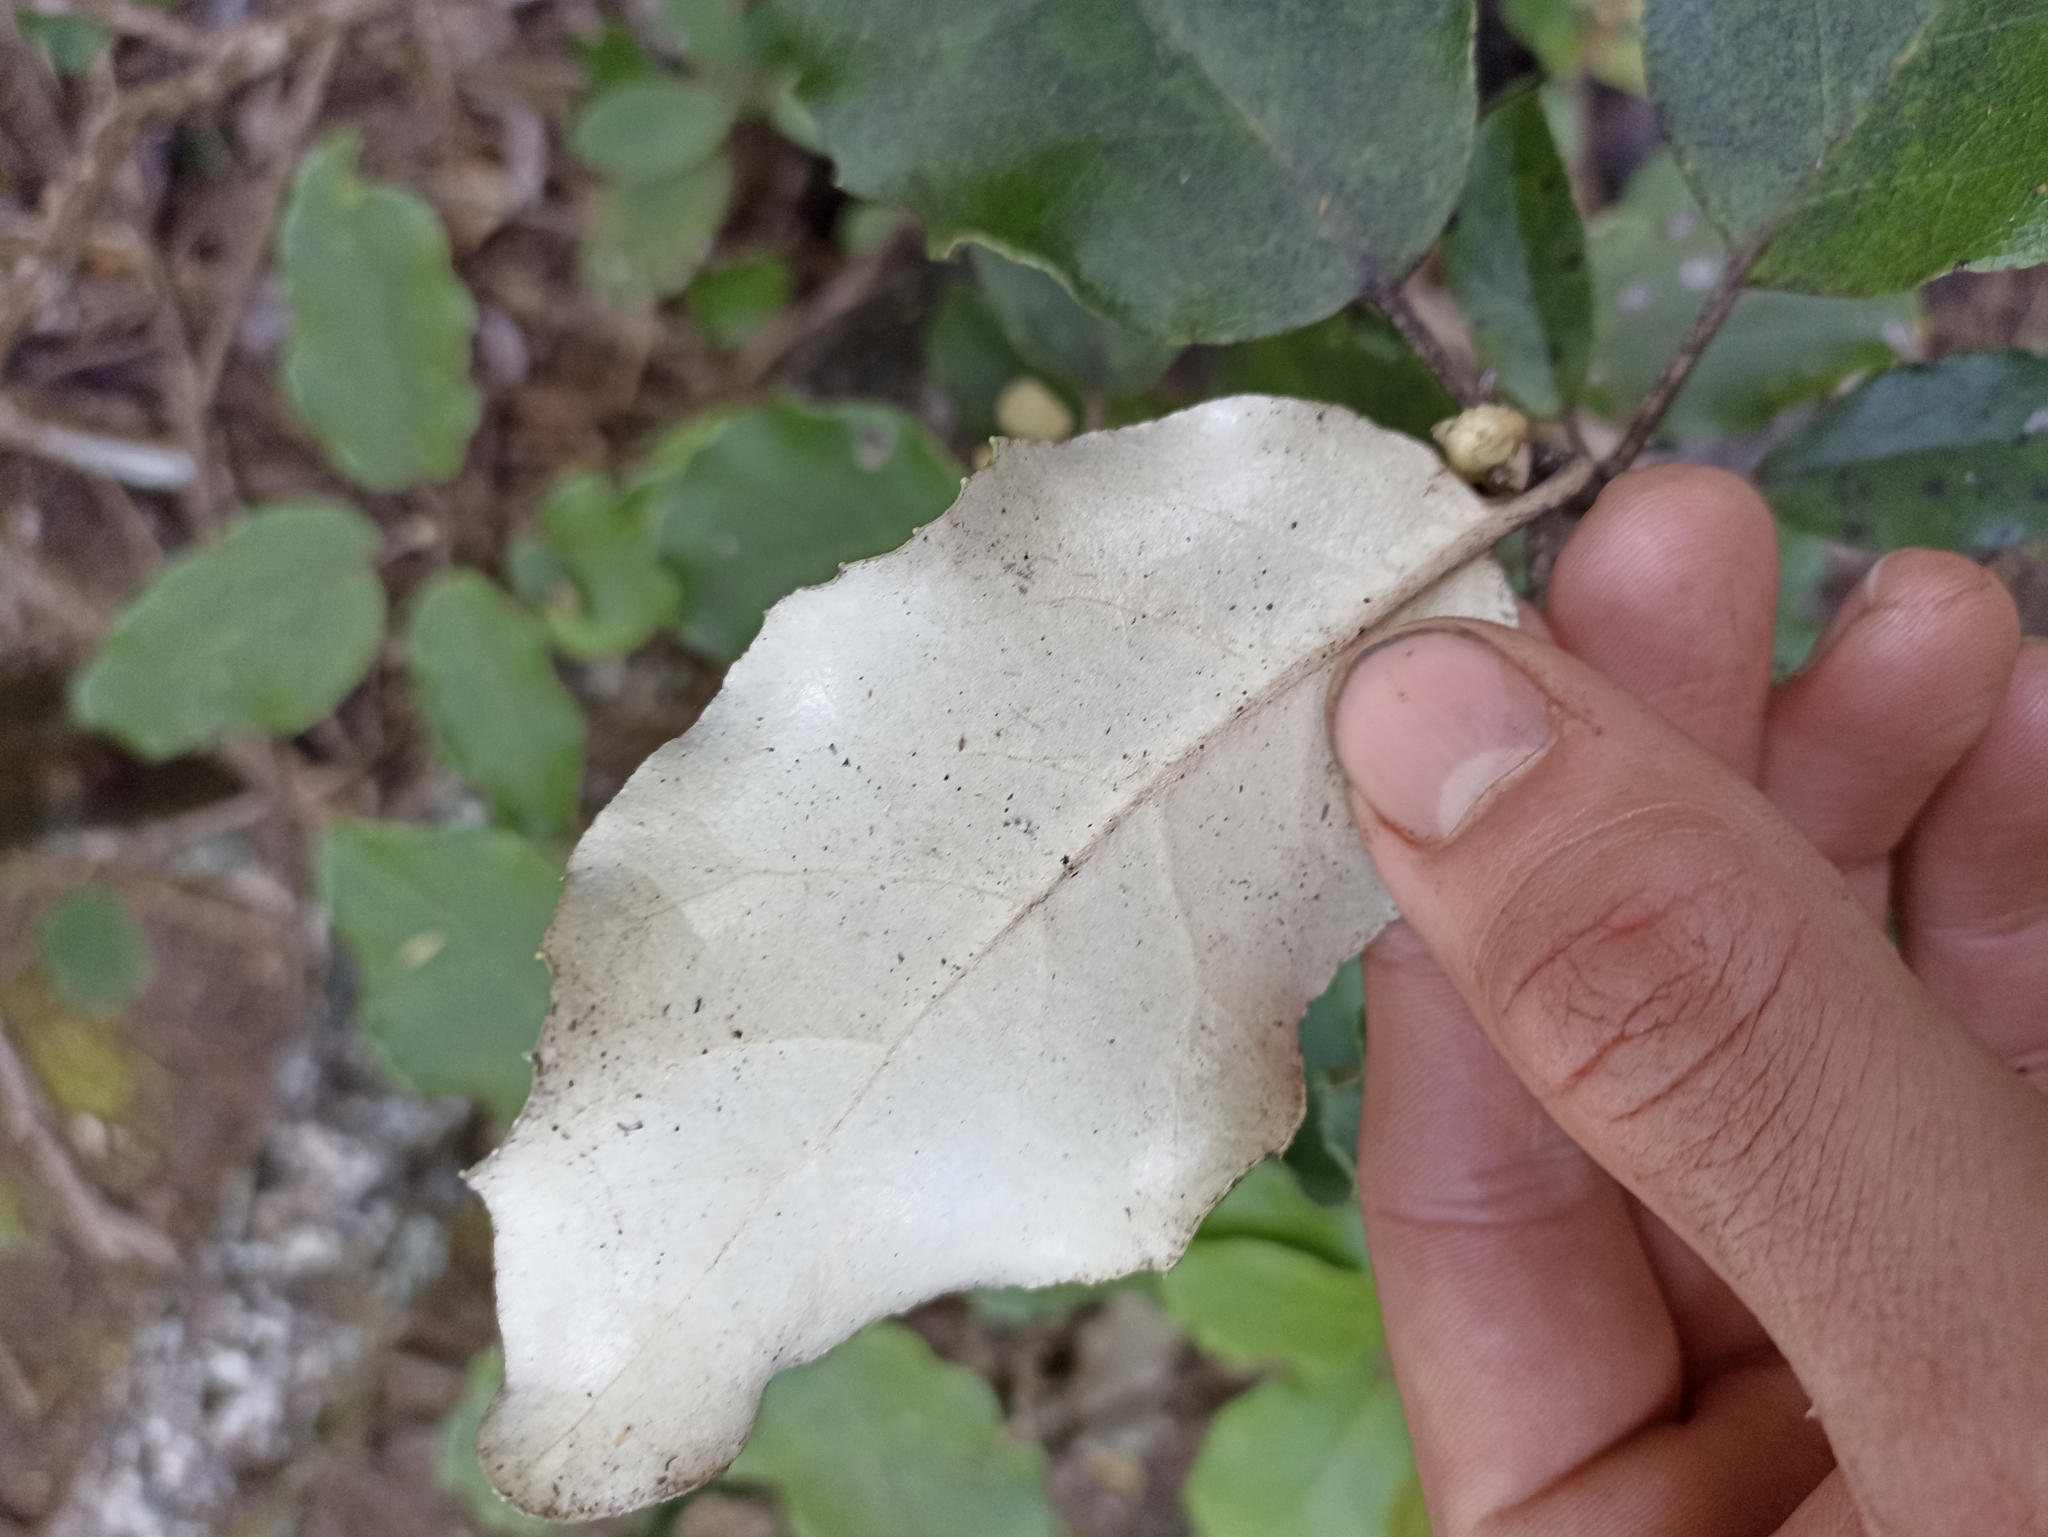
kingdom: Plantae
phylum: Tracheophyta
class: Magnoliopsida
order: Asterales
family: Asteraceae
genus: Olearia
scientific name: Olearia furfuracea
